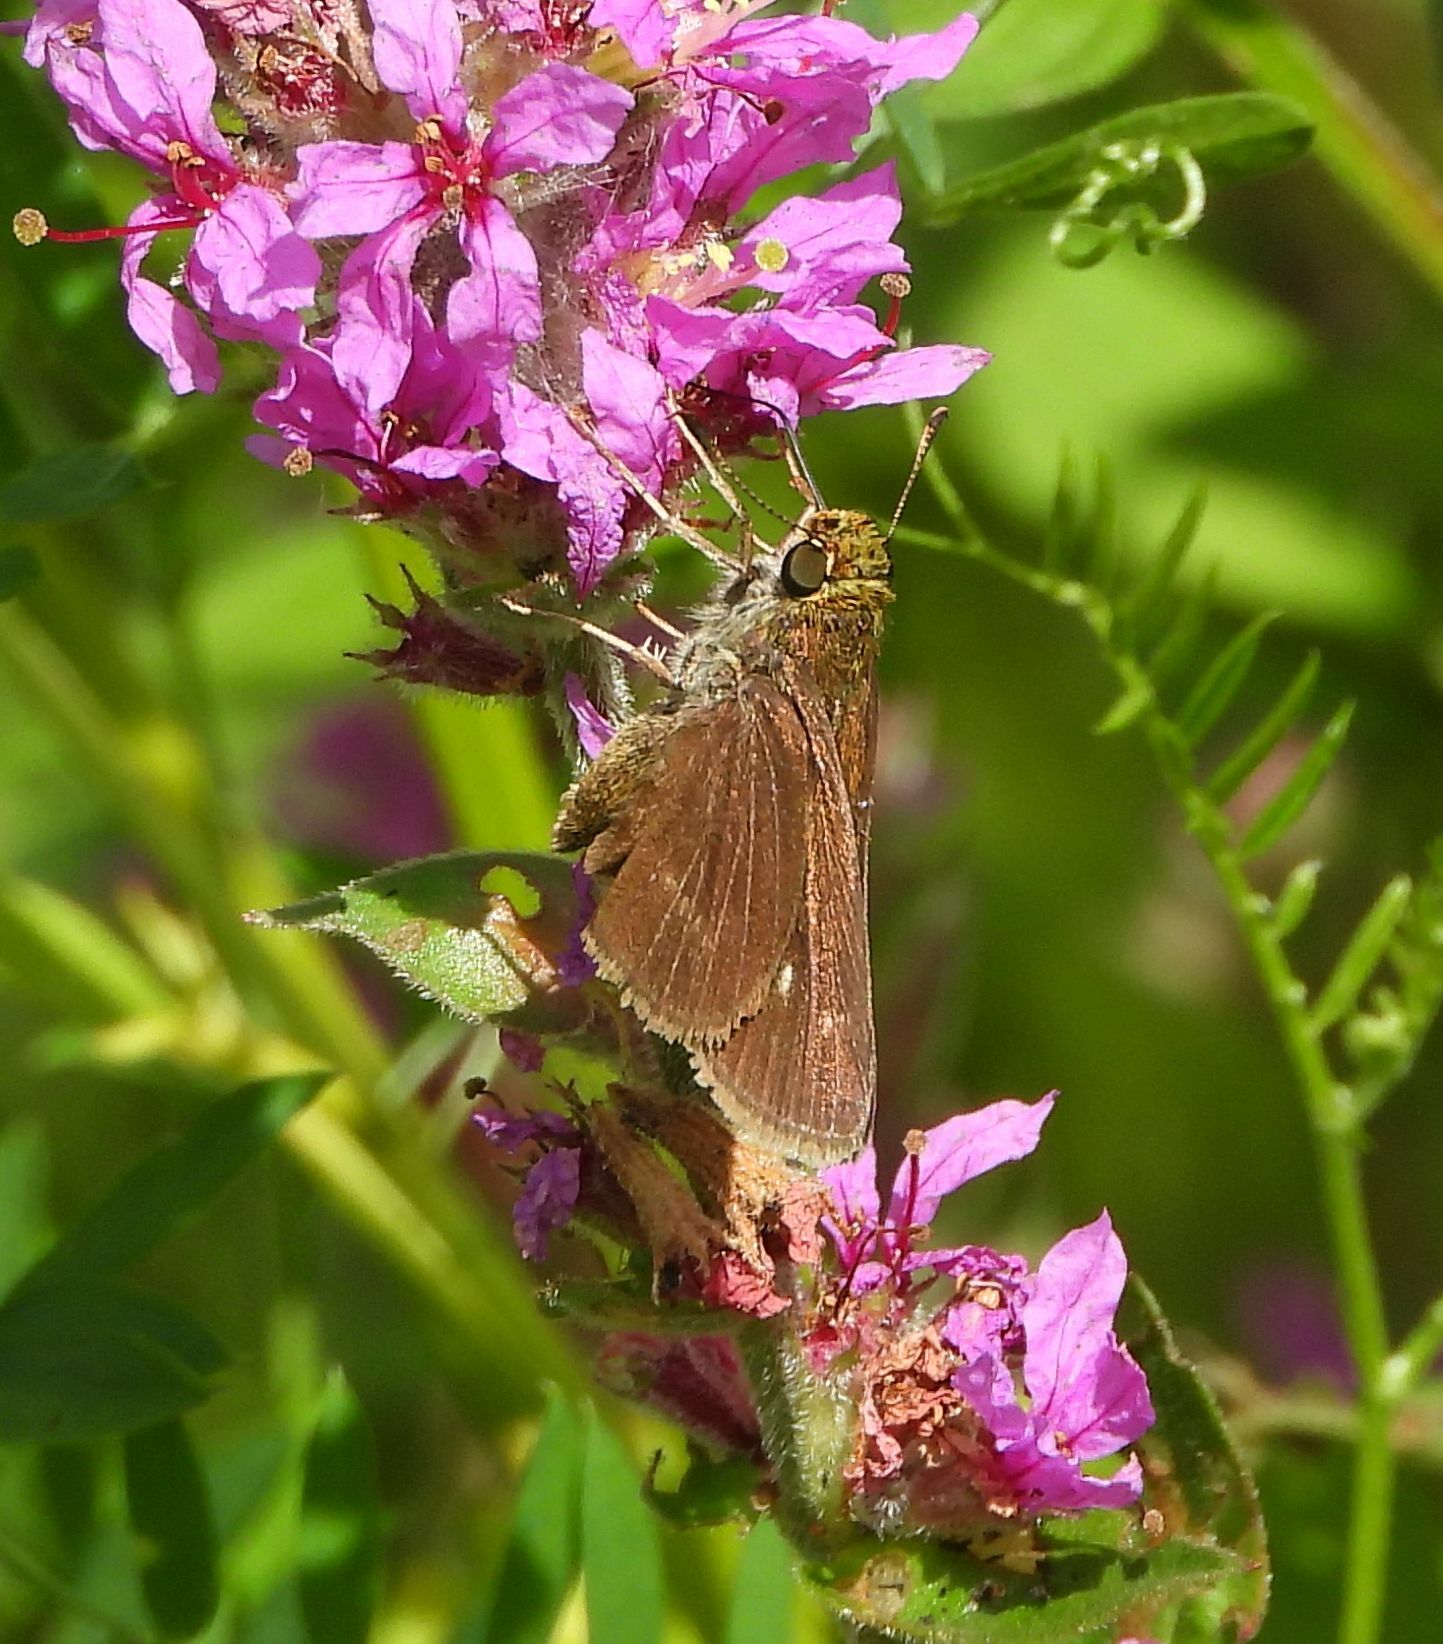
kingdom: Animalia
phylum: Arthropoda
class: Insecta
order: Lepidoptera
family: Hesperiidae
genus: Euphyes
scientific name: Euphyes vestris
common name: Dun skipper
